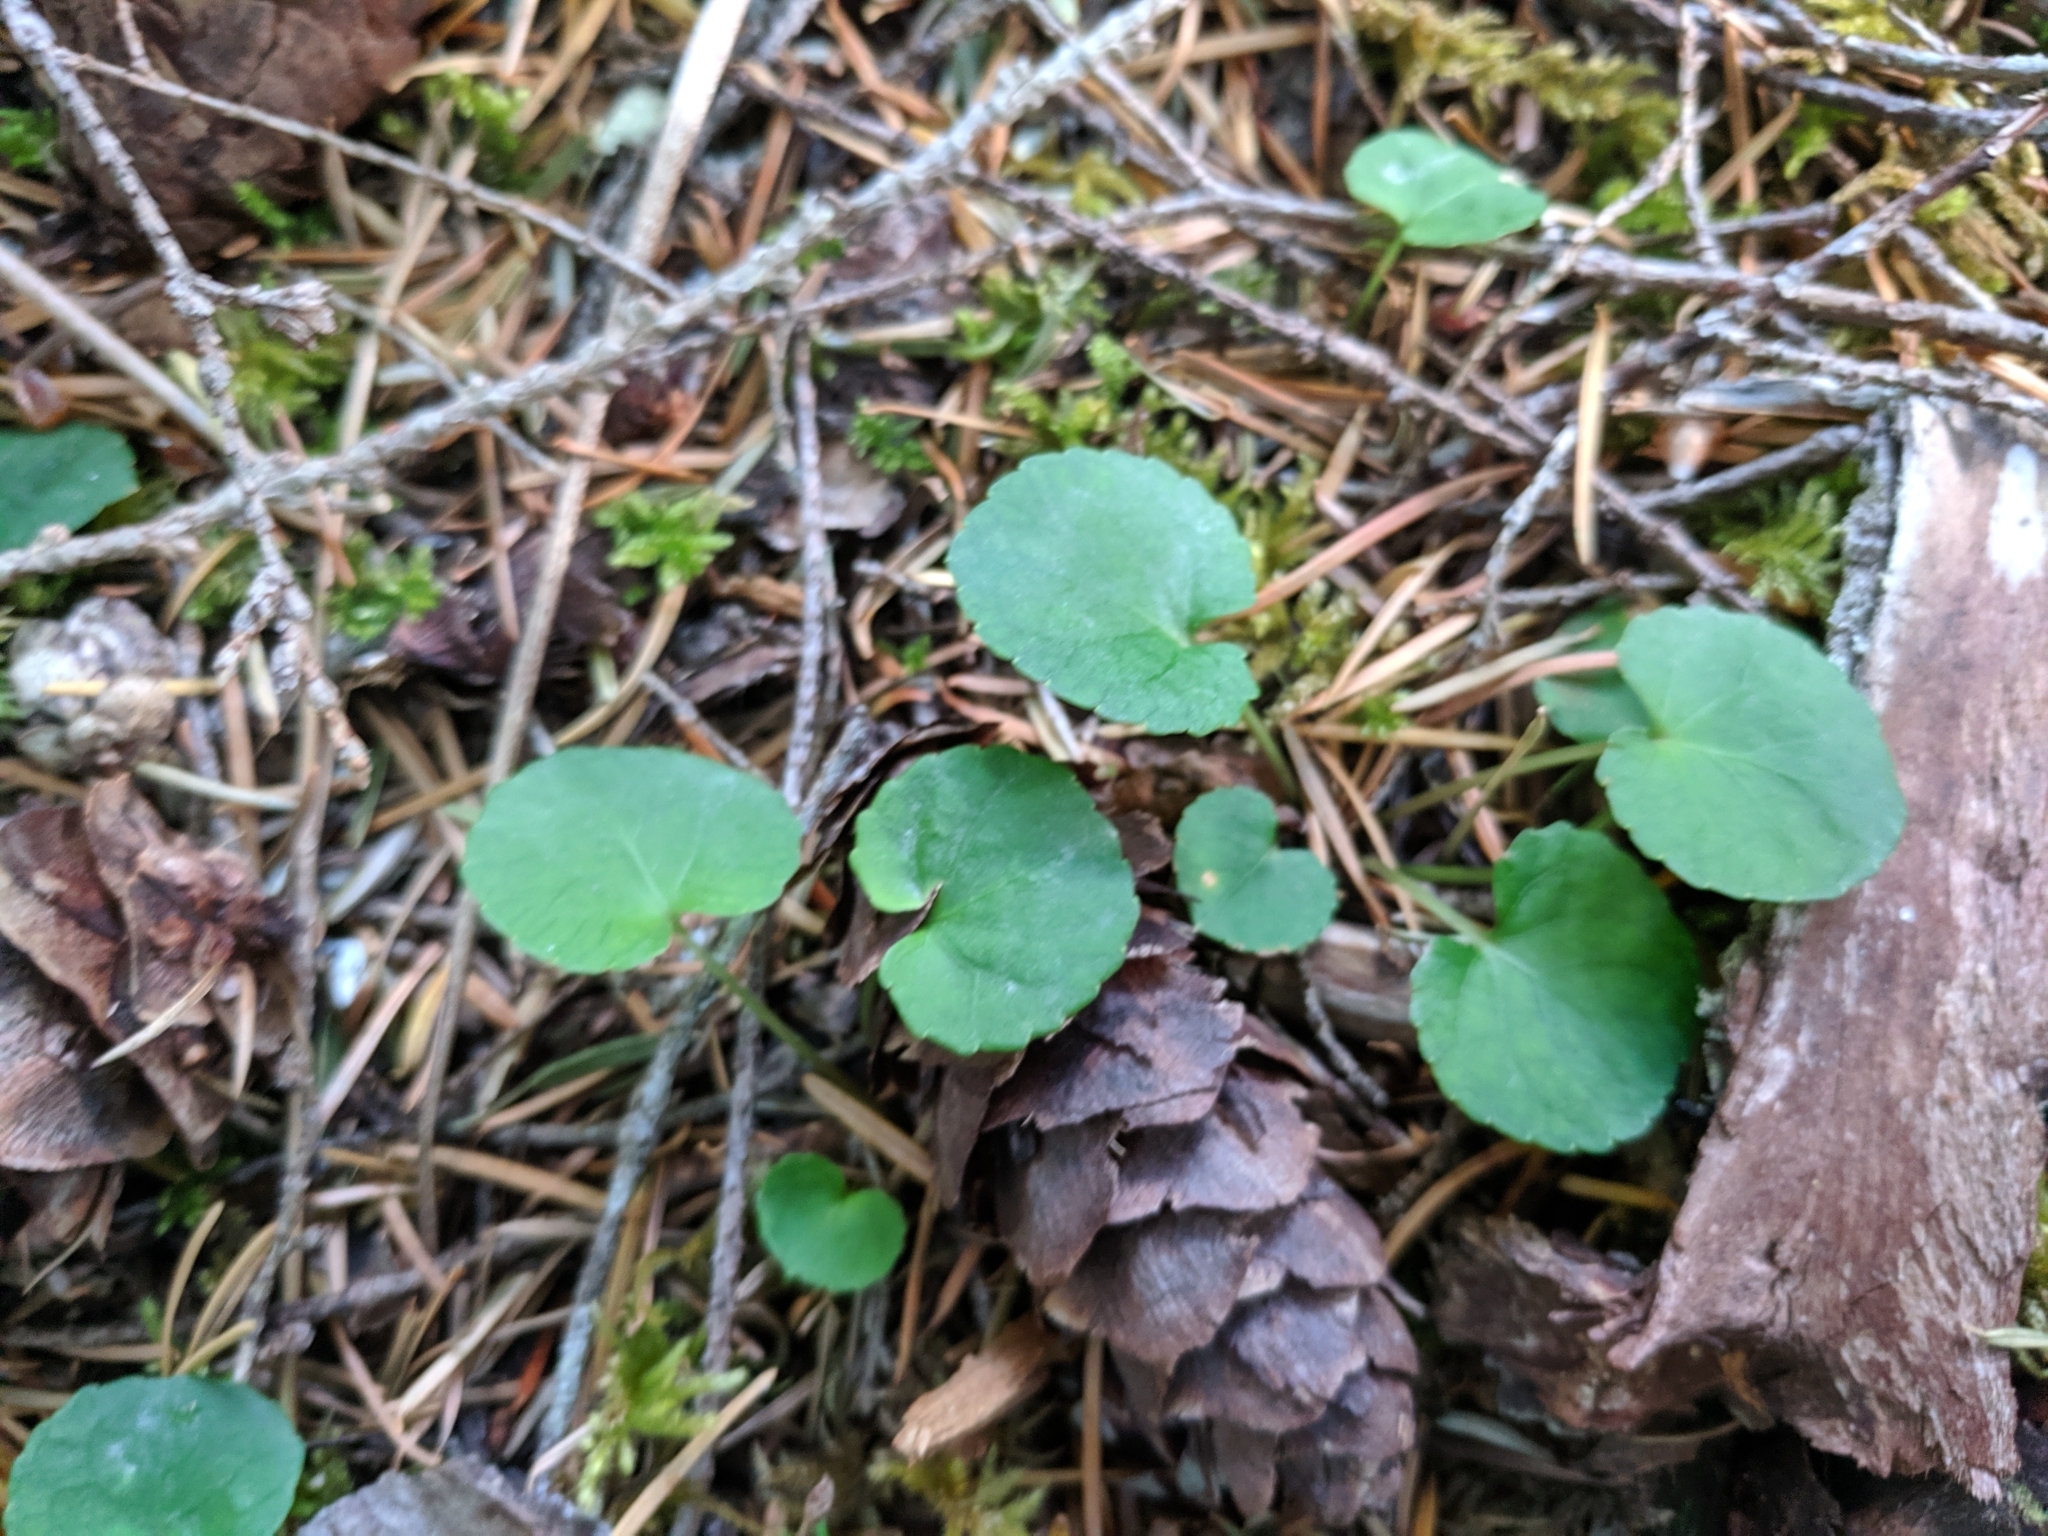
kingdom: Plantae
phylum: Tracheophyta
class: Magnoliopsida
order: Malpighiales
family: Violaceae
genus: Viola
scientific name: Viola sempervirens
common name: Evergreen violet
